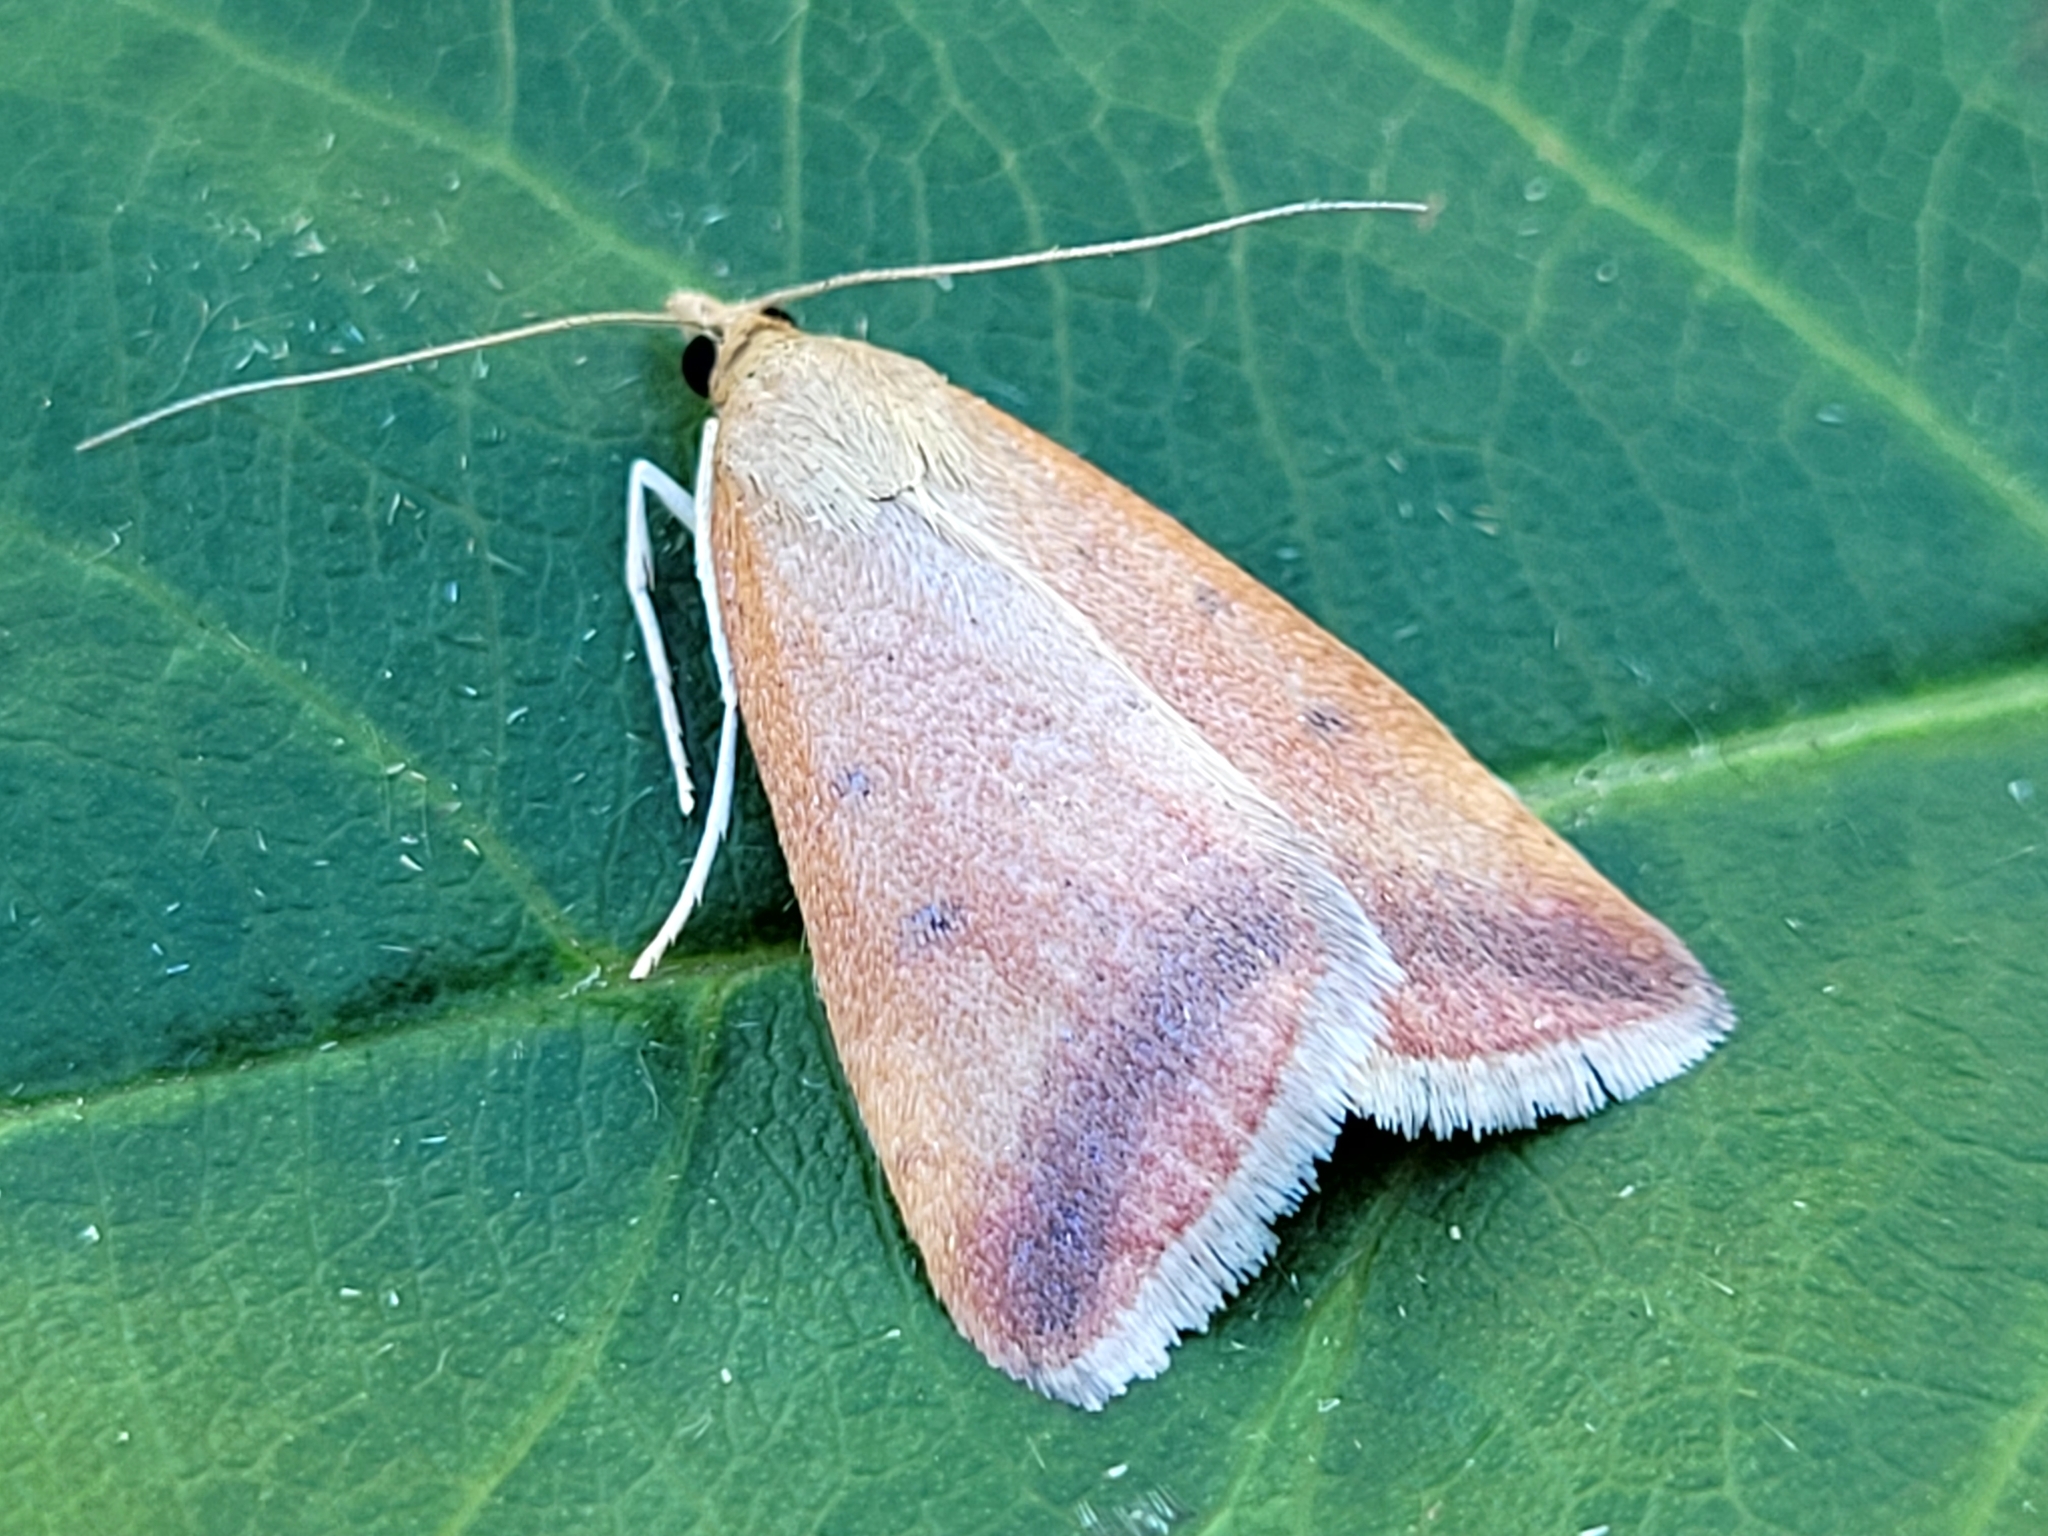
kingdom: Animalia
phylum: Arthropoda
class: Insecta
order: Lepidoptera
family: Crambidae
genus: Pyrausta
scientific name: Pyrausta socialis
